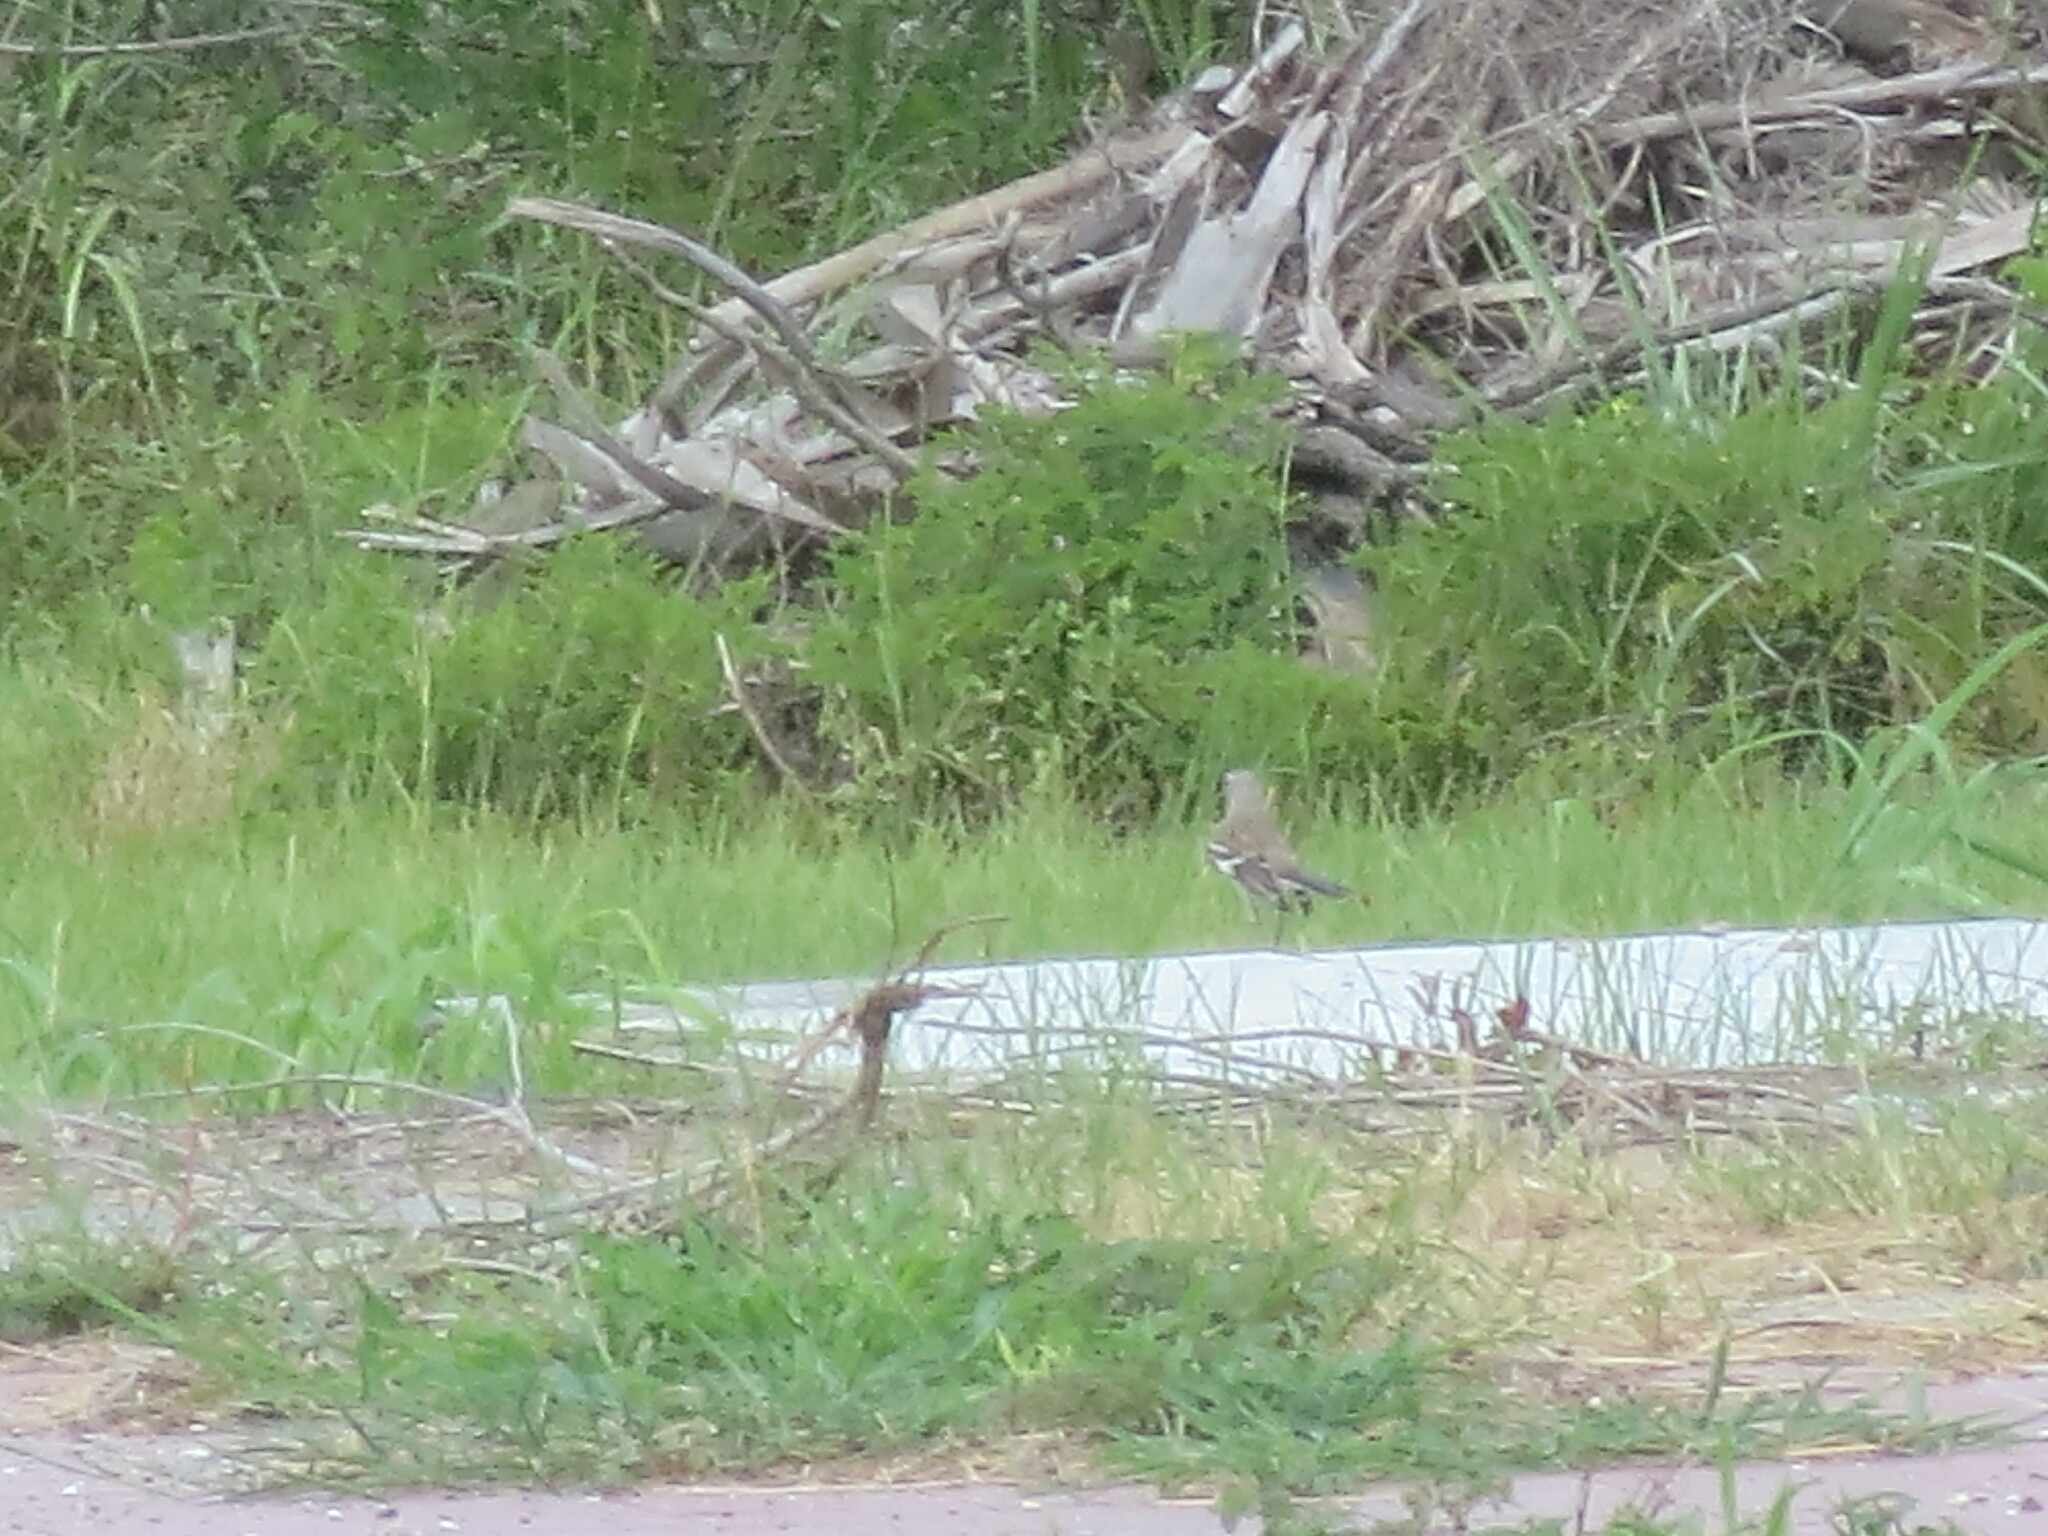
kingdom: Animalia
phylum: Chordata
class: Aves
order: Passeriformes
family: Mimidae
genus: Mimus
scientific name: Mimus polyglottos
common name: Northern mockingbird
